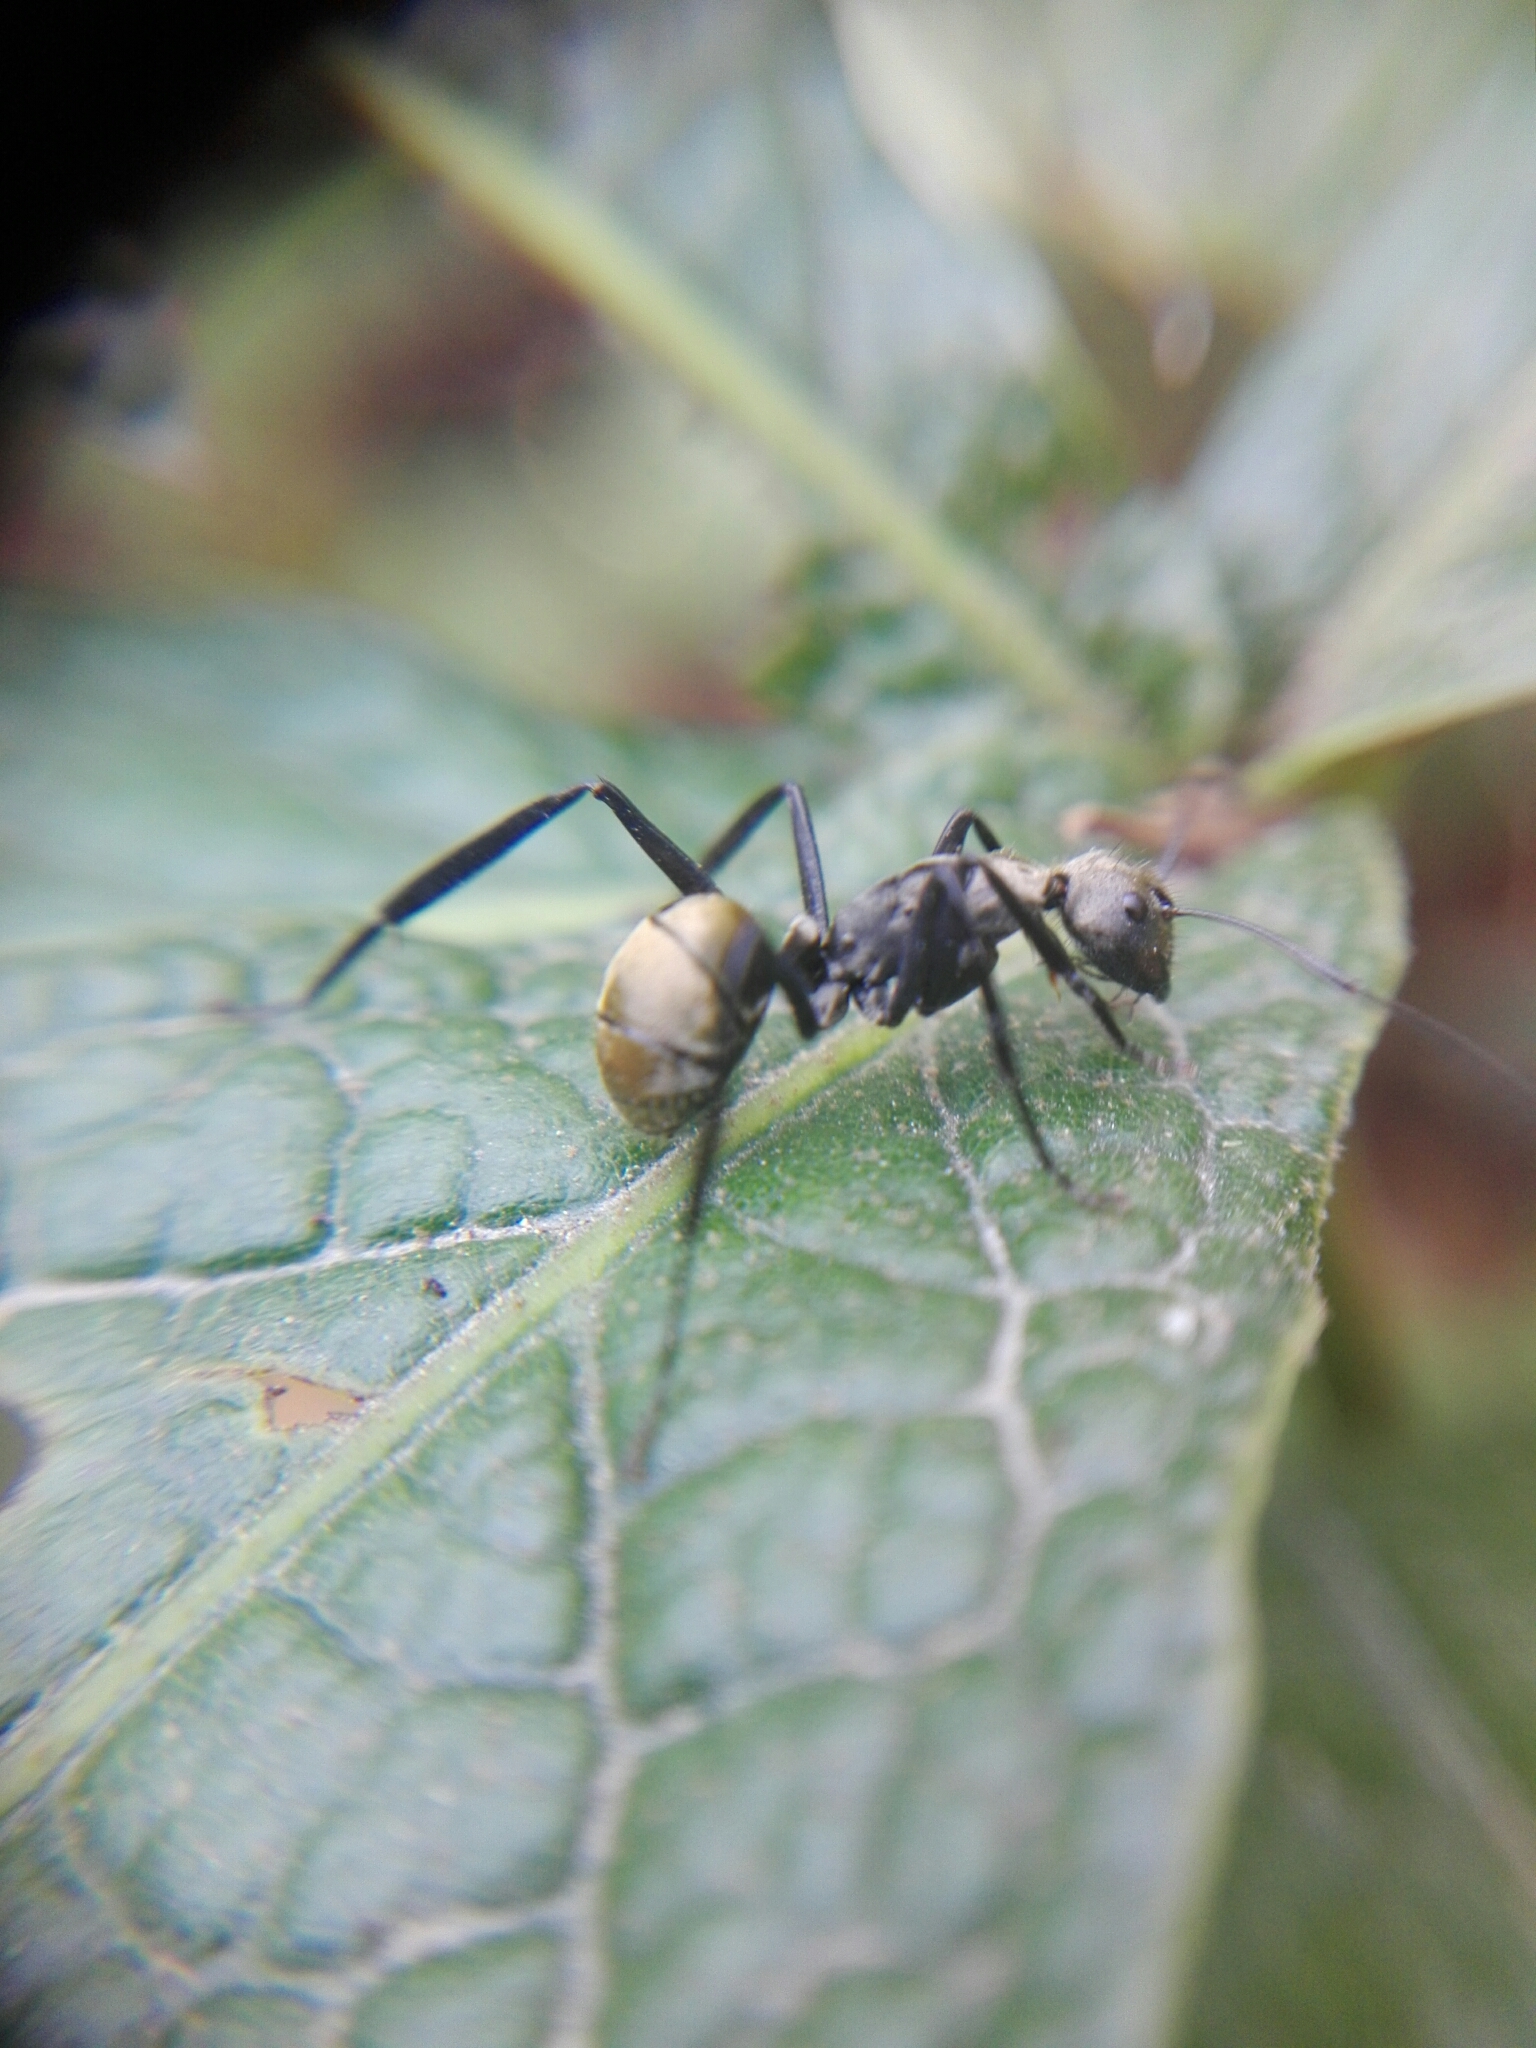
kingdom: Animalia
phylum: Arthropoda
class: Insecta
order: Hymenoptera
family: Formicidae
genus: Camponotus
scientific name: Camponotus sericeiventris
